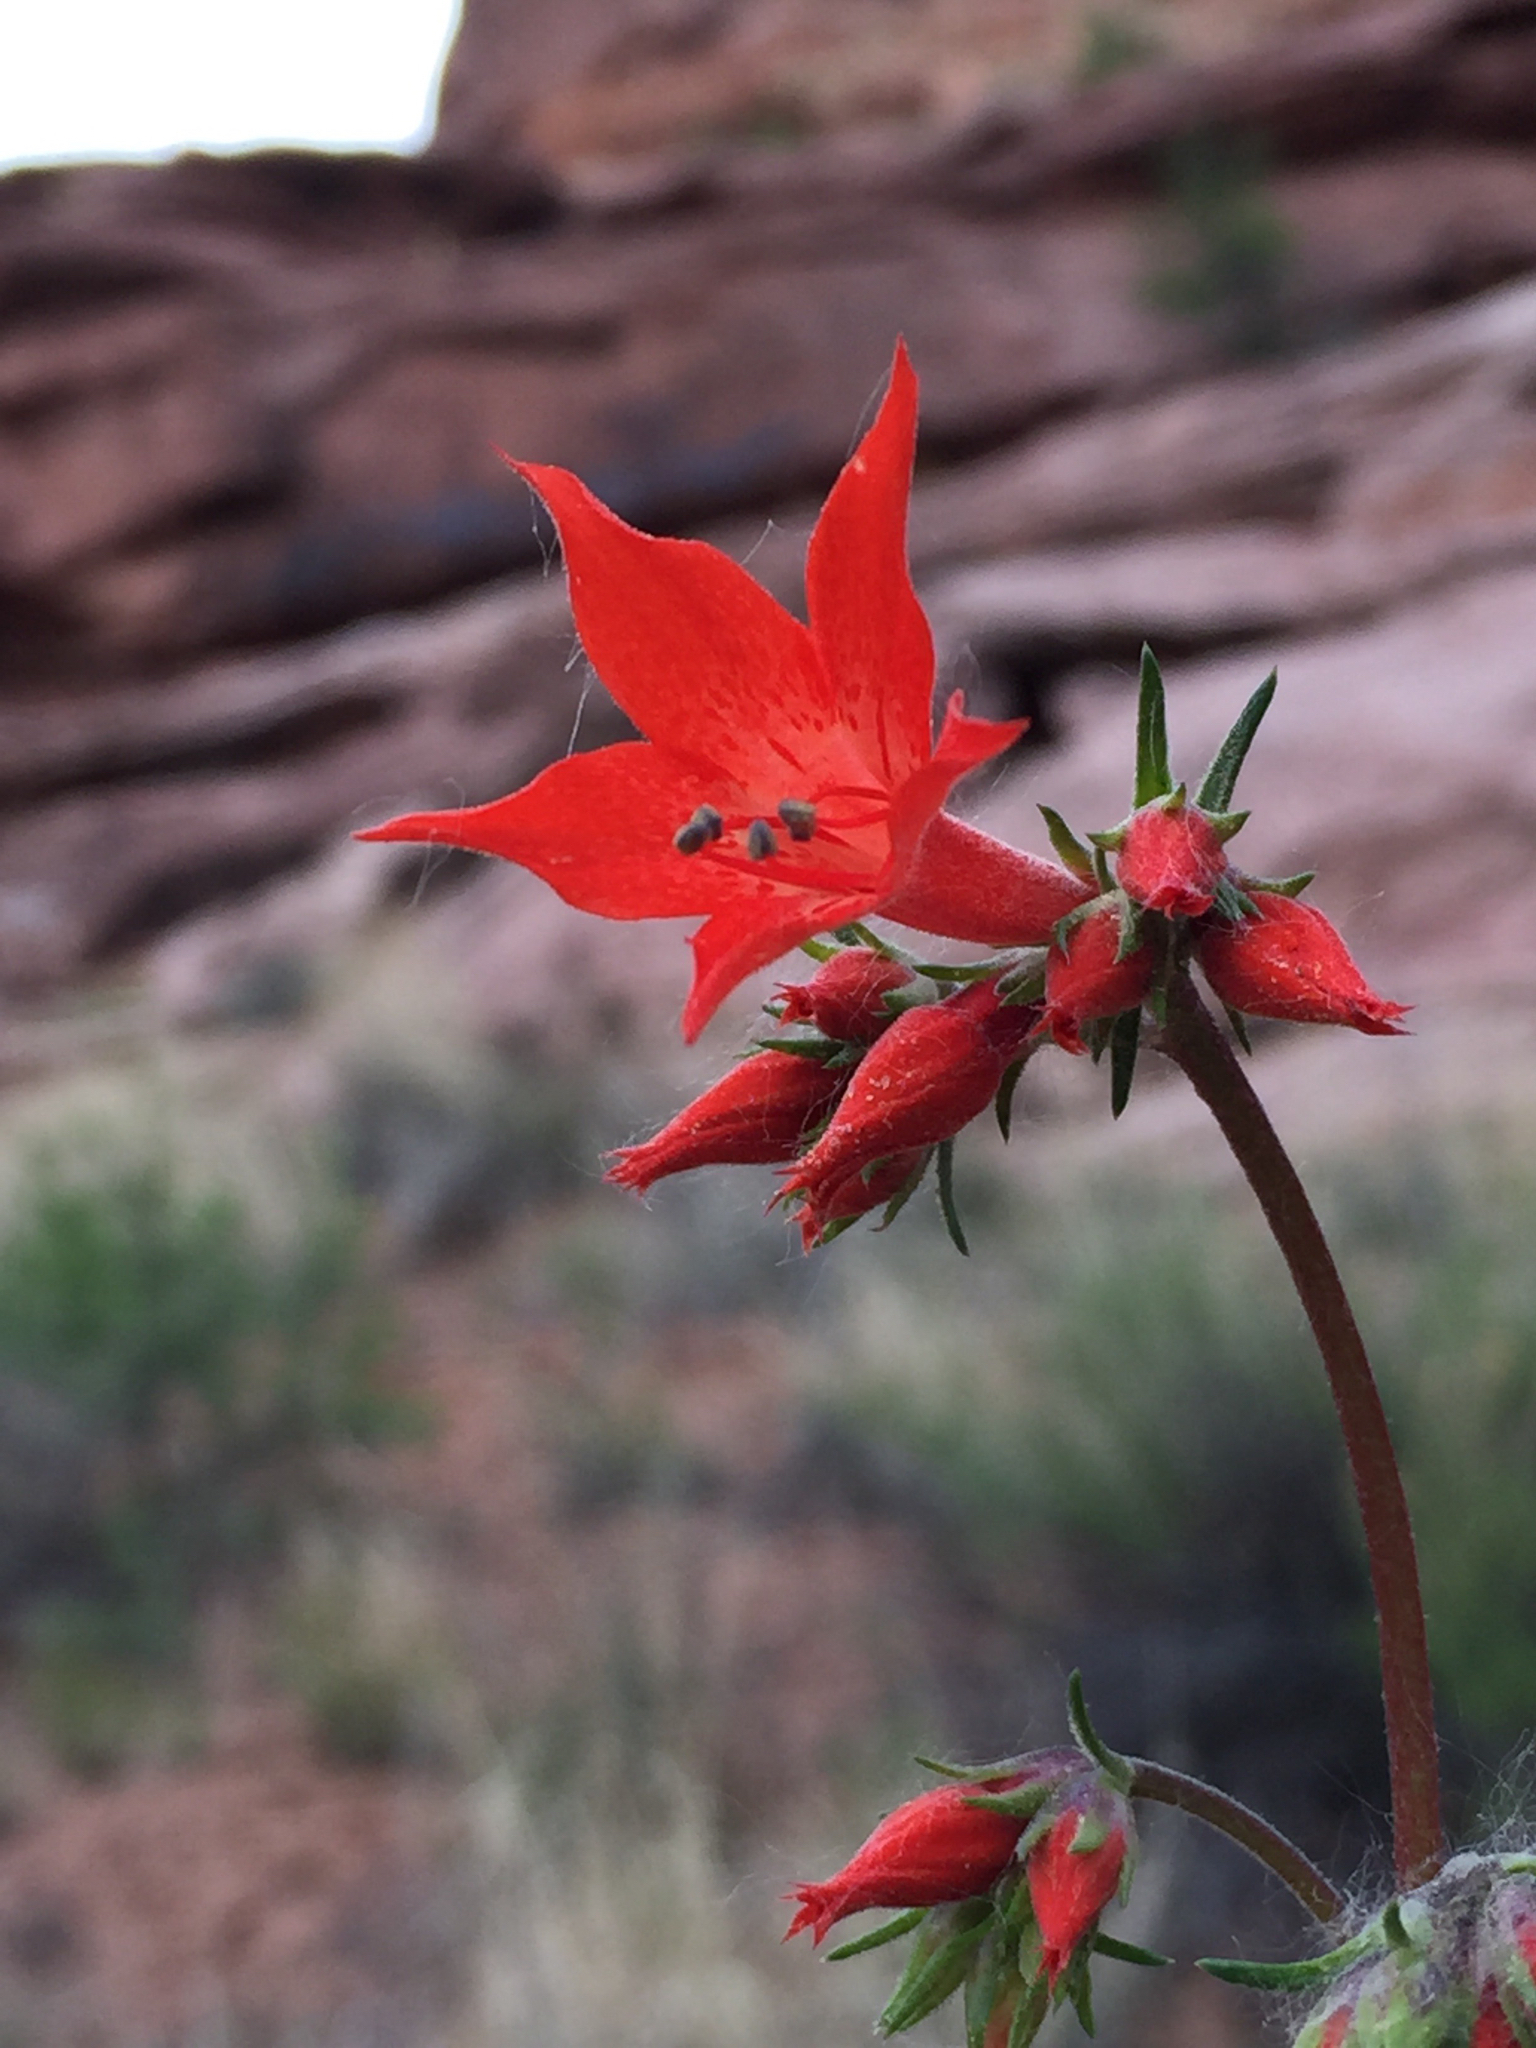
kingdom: Plantae
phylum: Tracheophyta
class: Magnoliopsida
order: Ericales
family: Polemoniaceae
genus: Ipomopsis
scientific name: Ipomopsis aggregata
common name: Scarlet gilia
